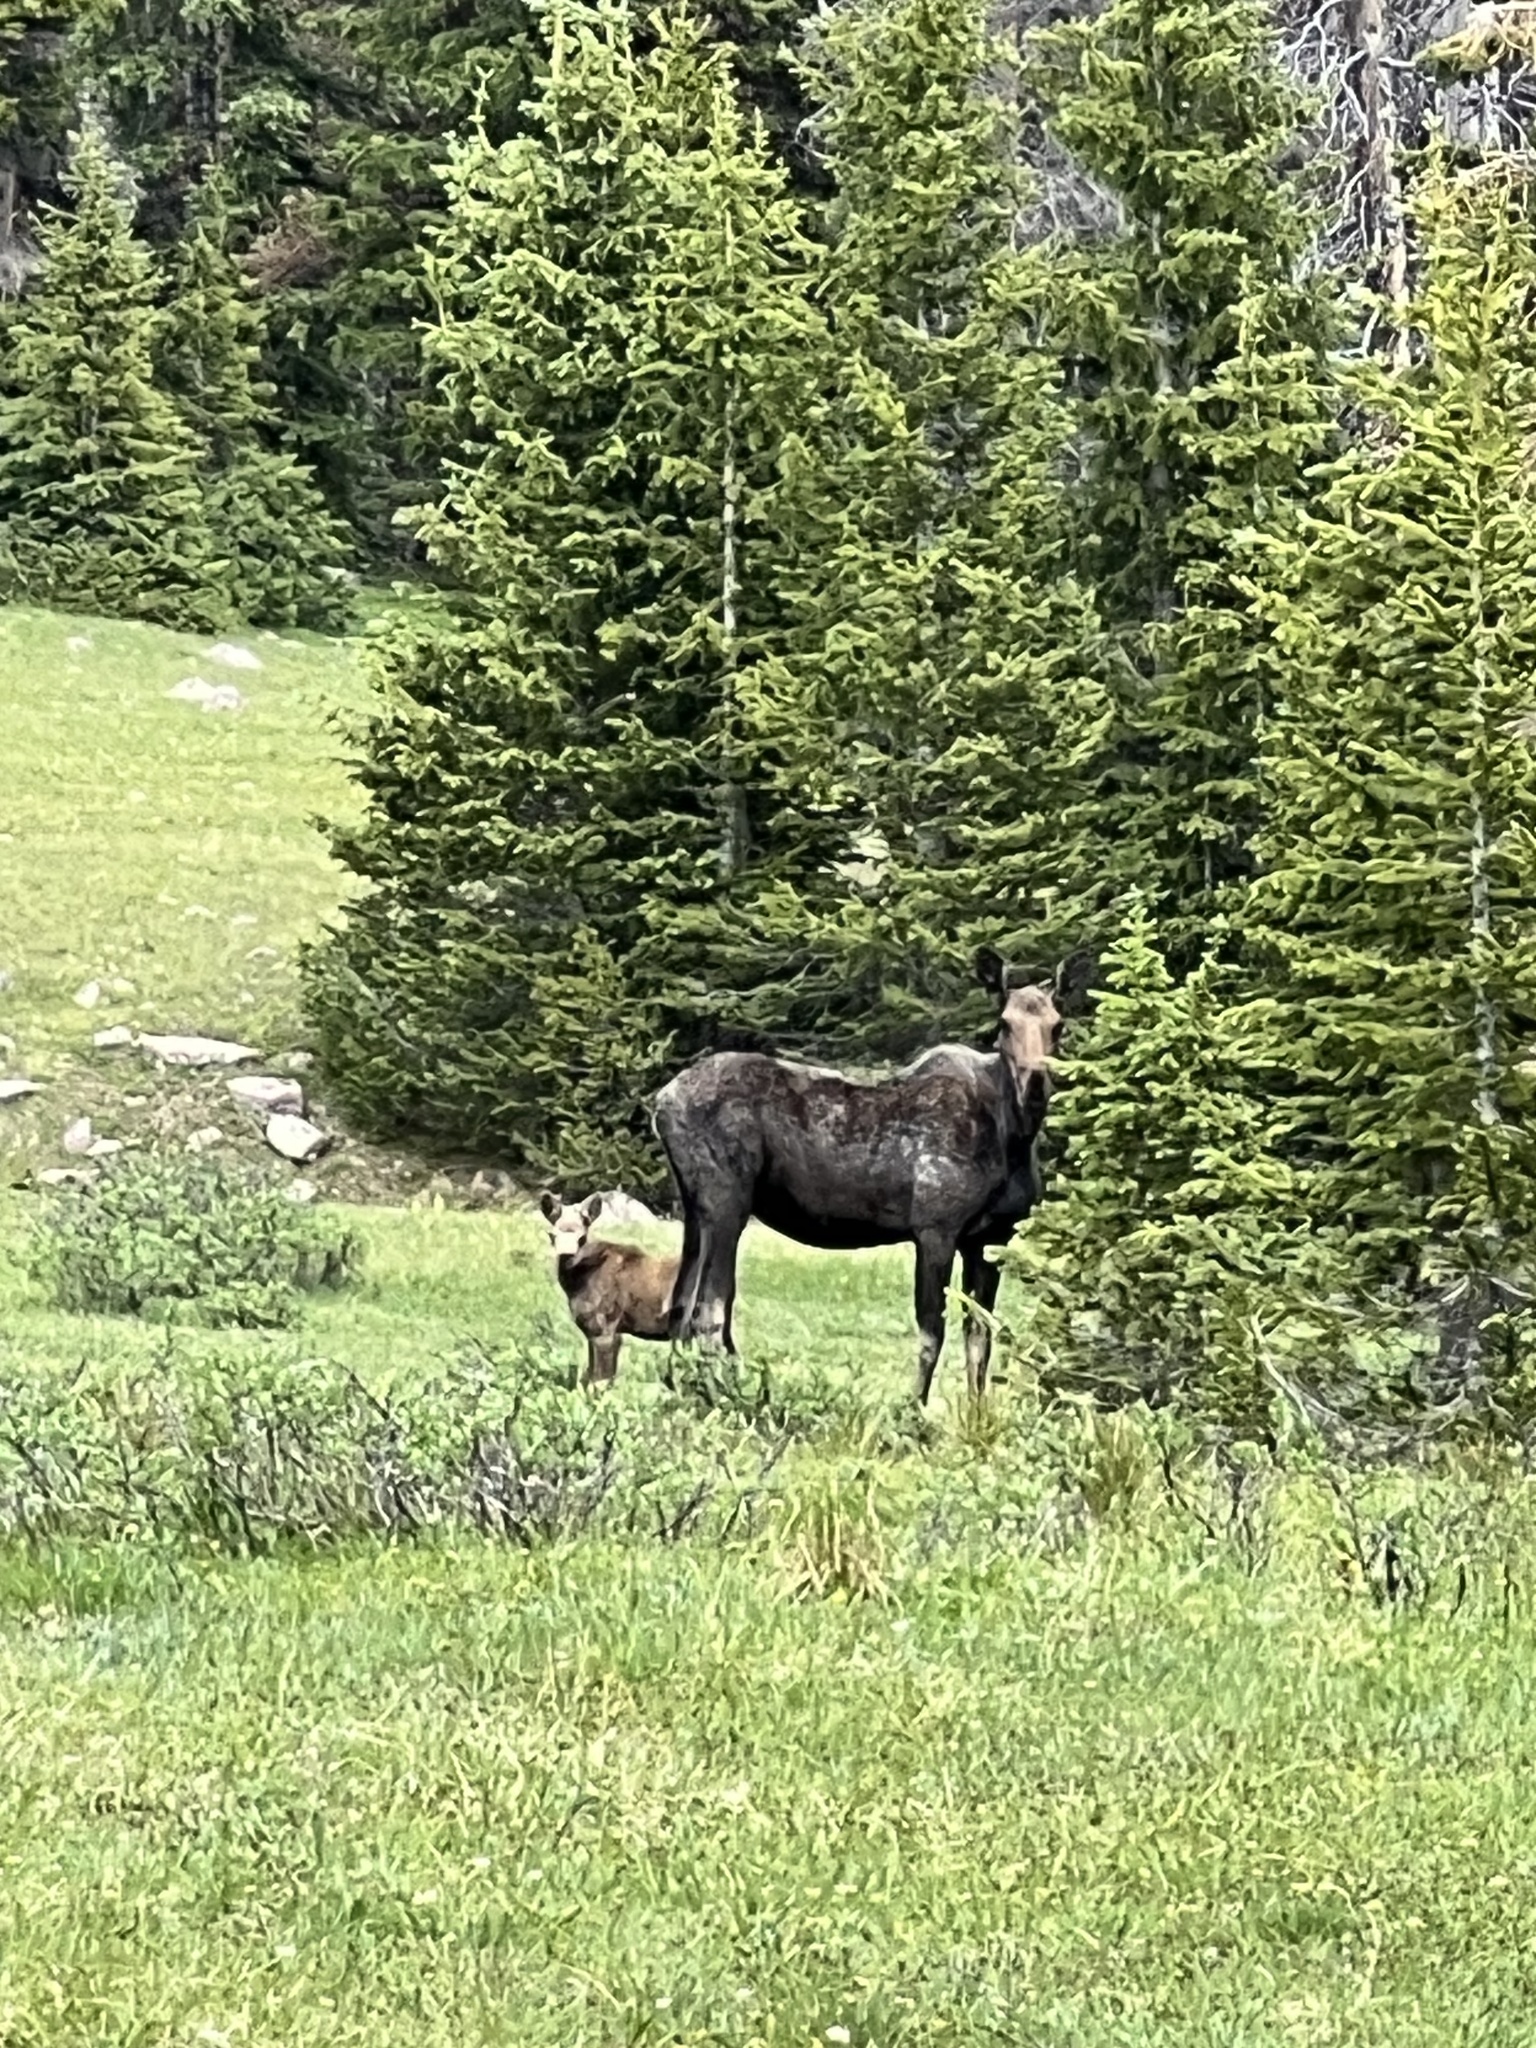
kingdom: Animalia
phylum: Chordata
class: Mammalia
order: Artiodactyla
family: Cervidae
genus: Alces
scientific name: Alces alces
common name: Moose
